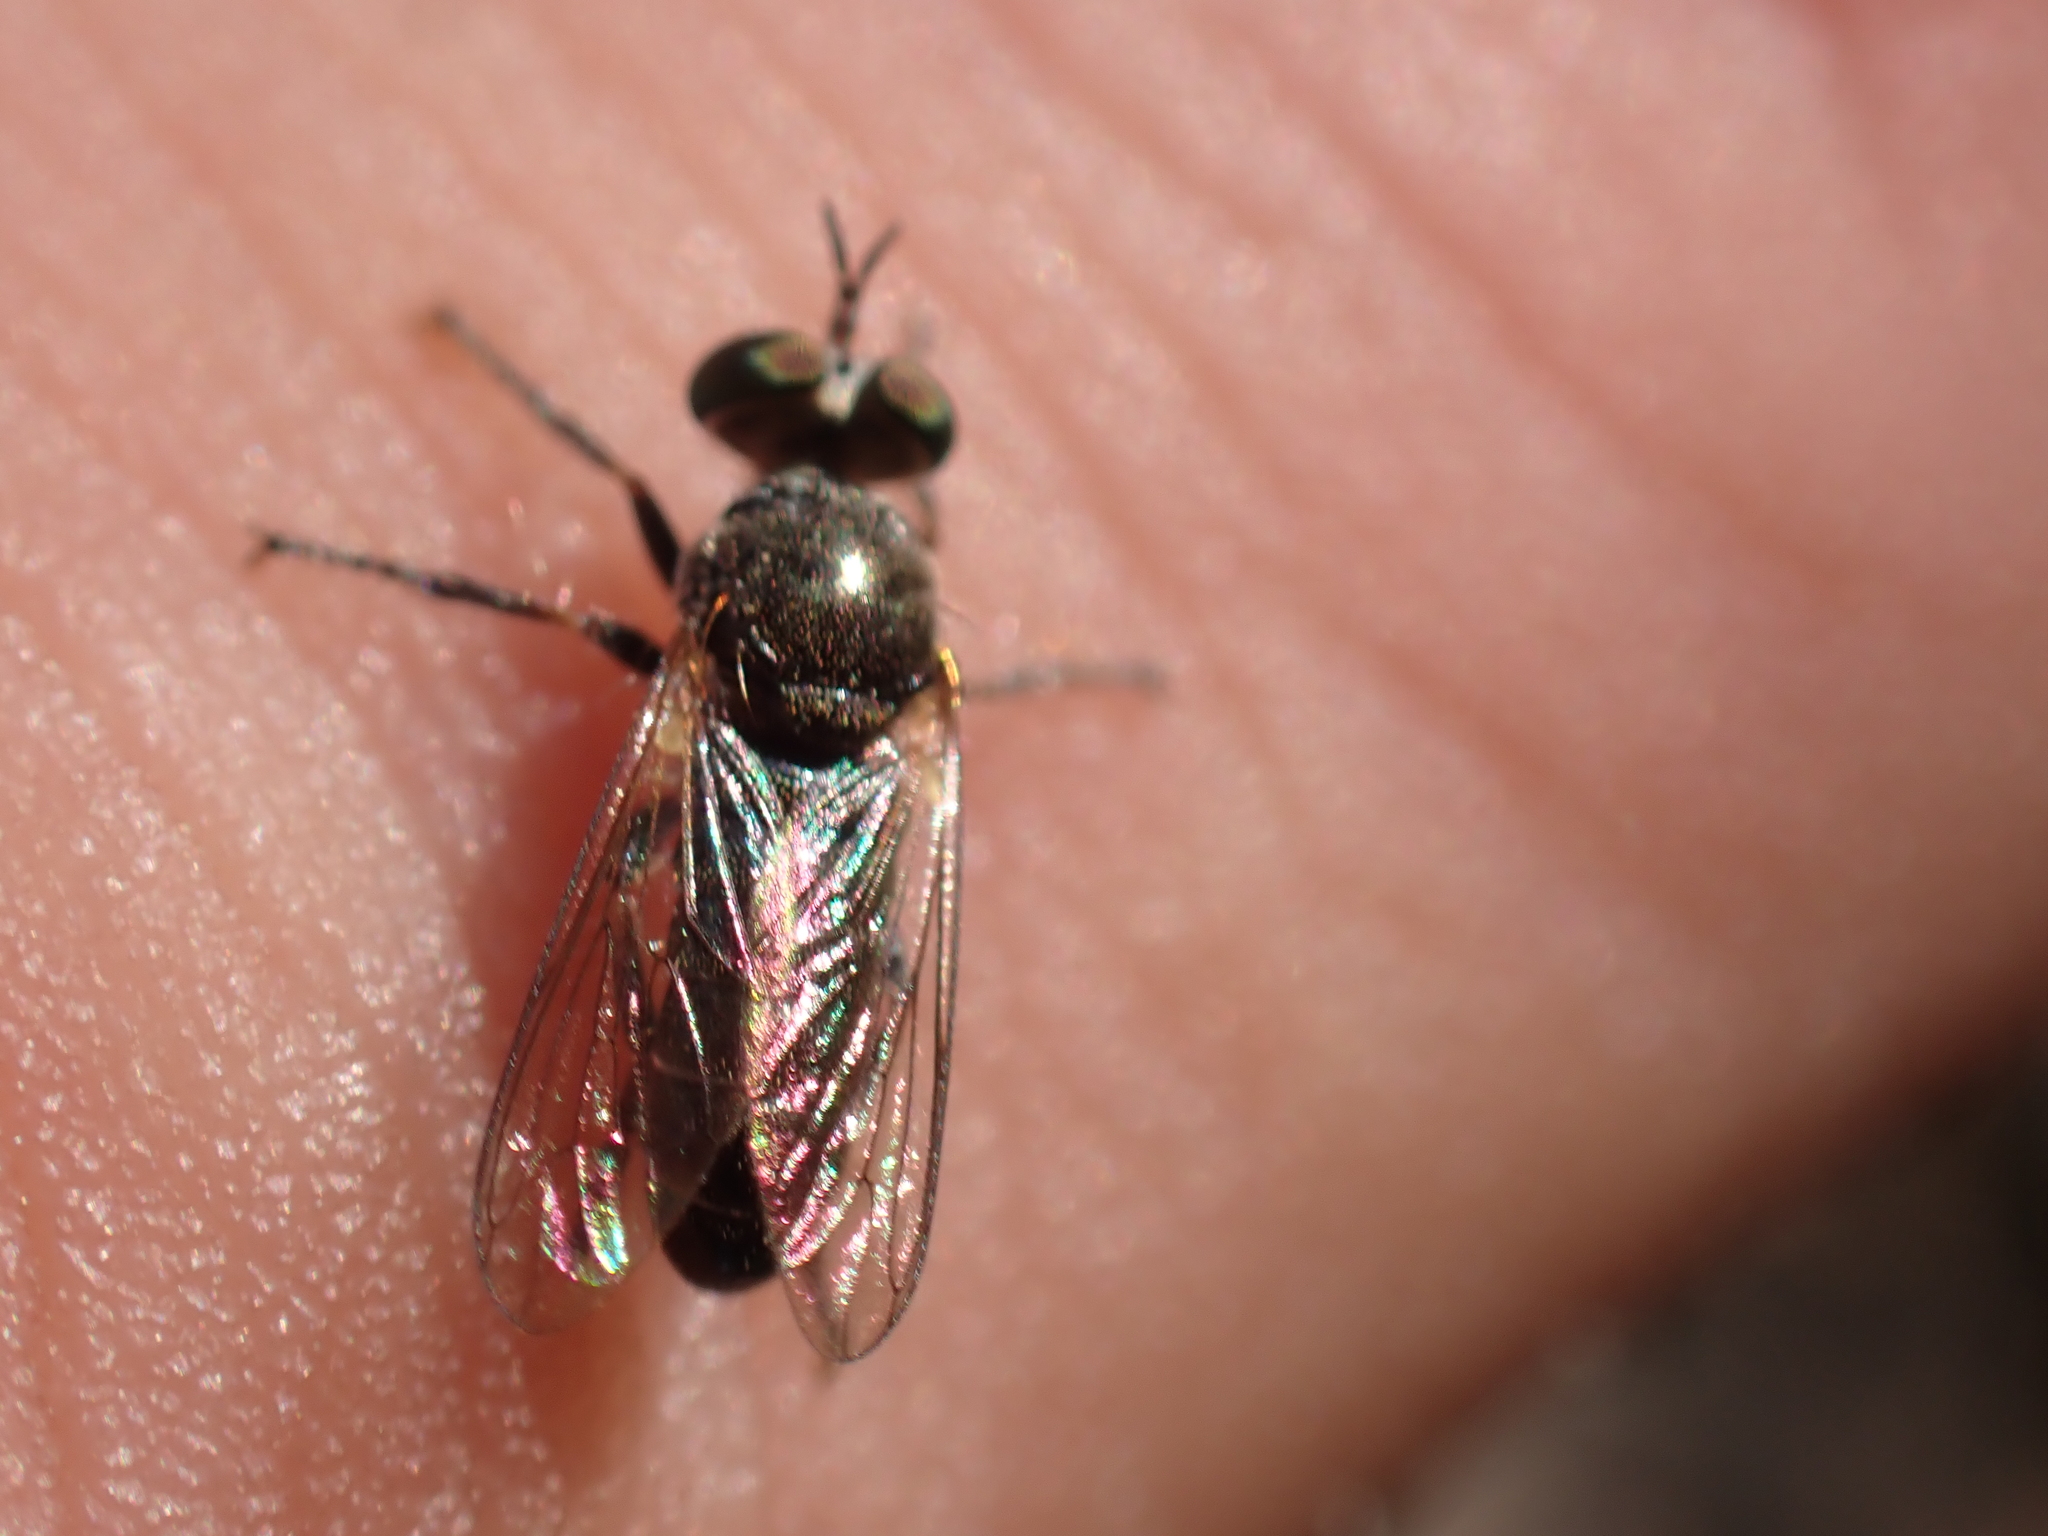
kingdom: Animalia
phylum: Arthropoda
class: Insecta
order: Diptera
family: Asilidae
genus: Atomosia
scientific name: Atomosia puella
